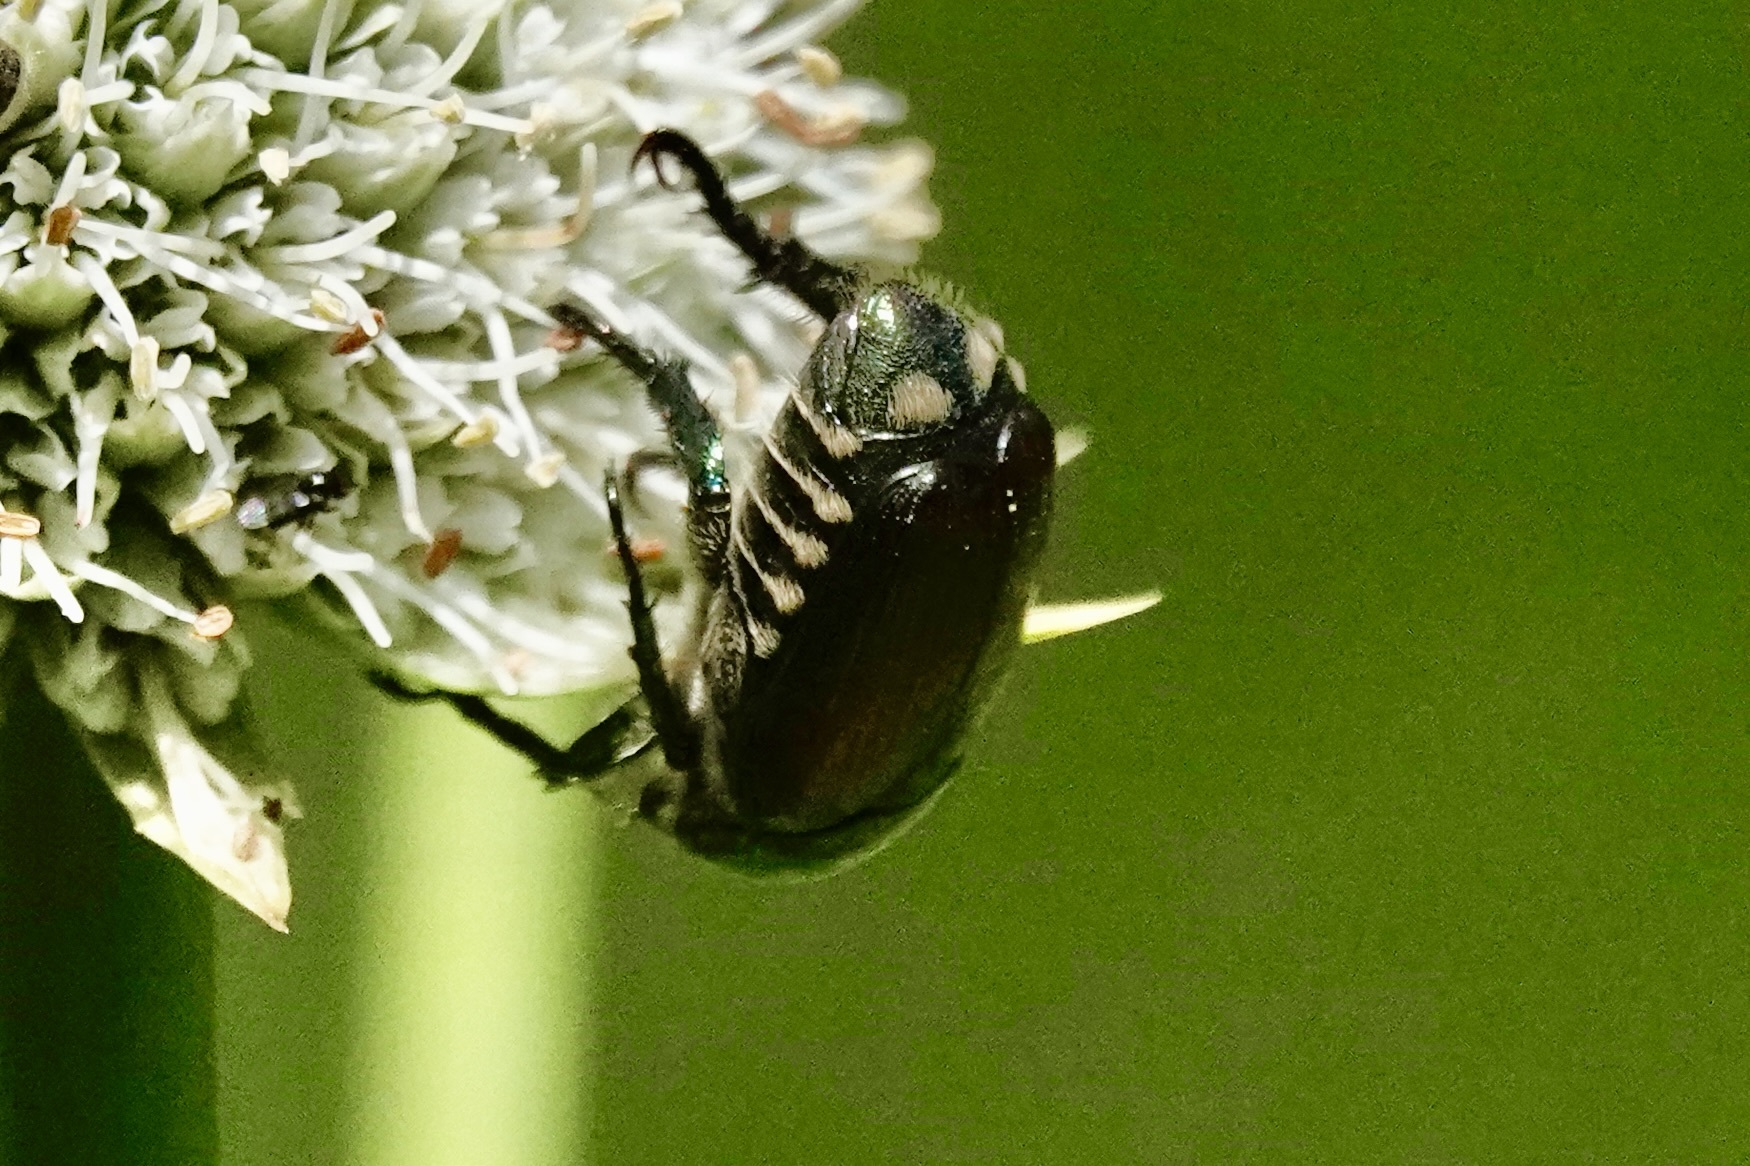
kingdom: Animalia
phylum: Arthropoda
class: Insecta
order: Coleoptera
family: Scarabaeidae
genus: Popillia
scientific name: Popillia japonica
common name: Japanese beetle
